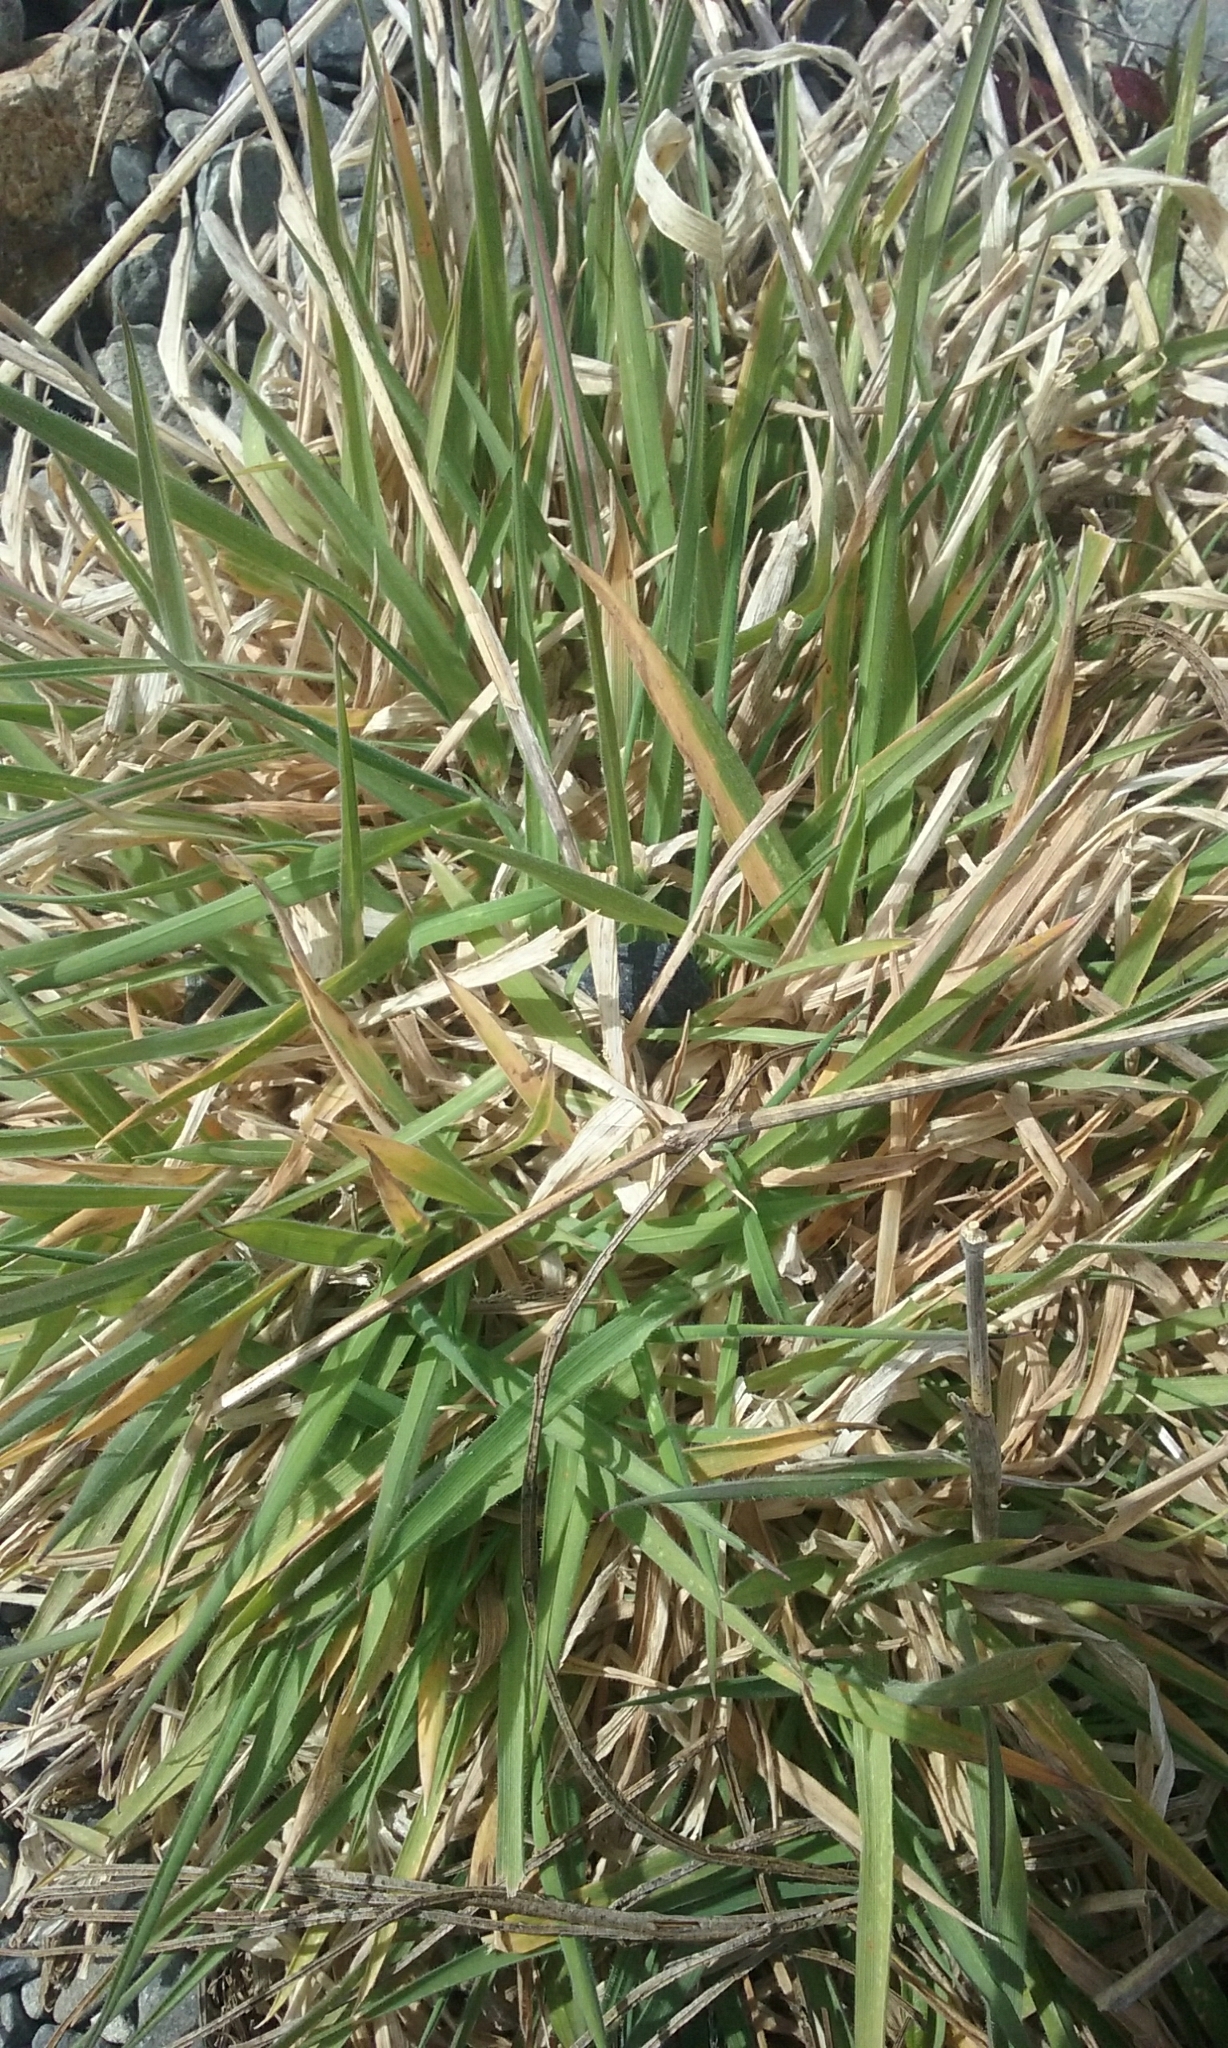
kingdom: Plantae
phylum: Tracheophyta
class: Liliopsida
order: Poales
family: Poaceae
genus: Holcus
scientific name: Holcus lanatus
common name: Yorkshire-fog
